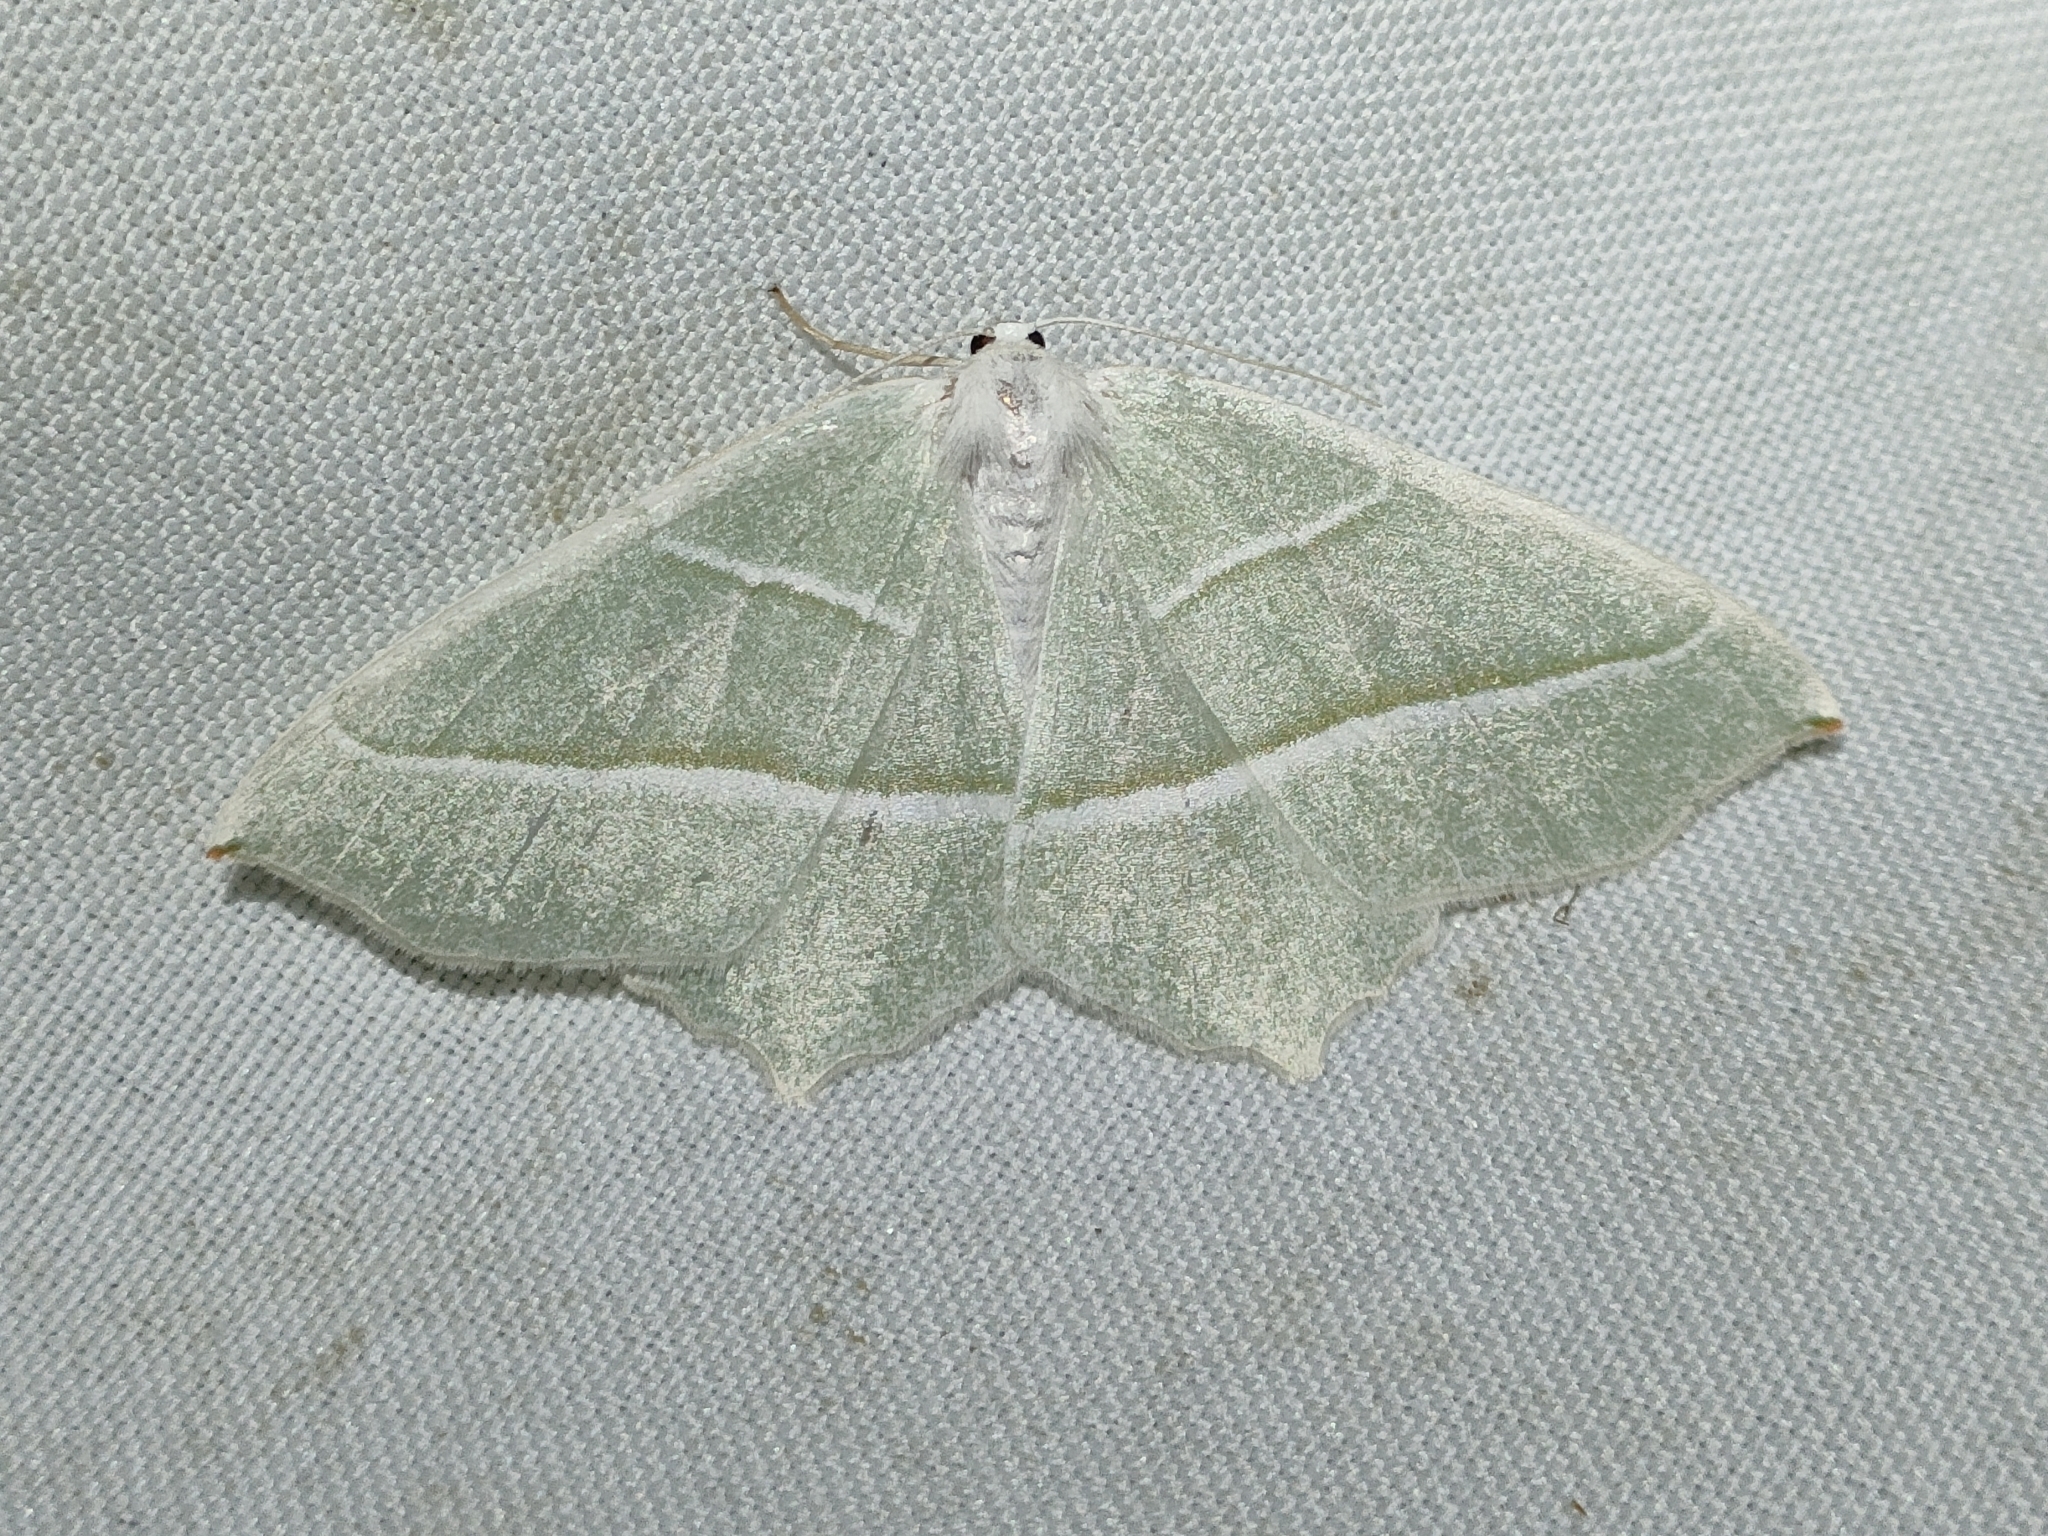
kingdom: Animalia
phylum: Arthropoda
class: Insecta
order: Lepidoptera
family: Geometridae
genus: Campaea
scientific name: Campaea margaritaria
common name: Light emerald
